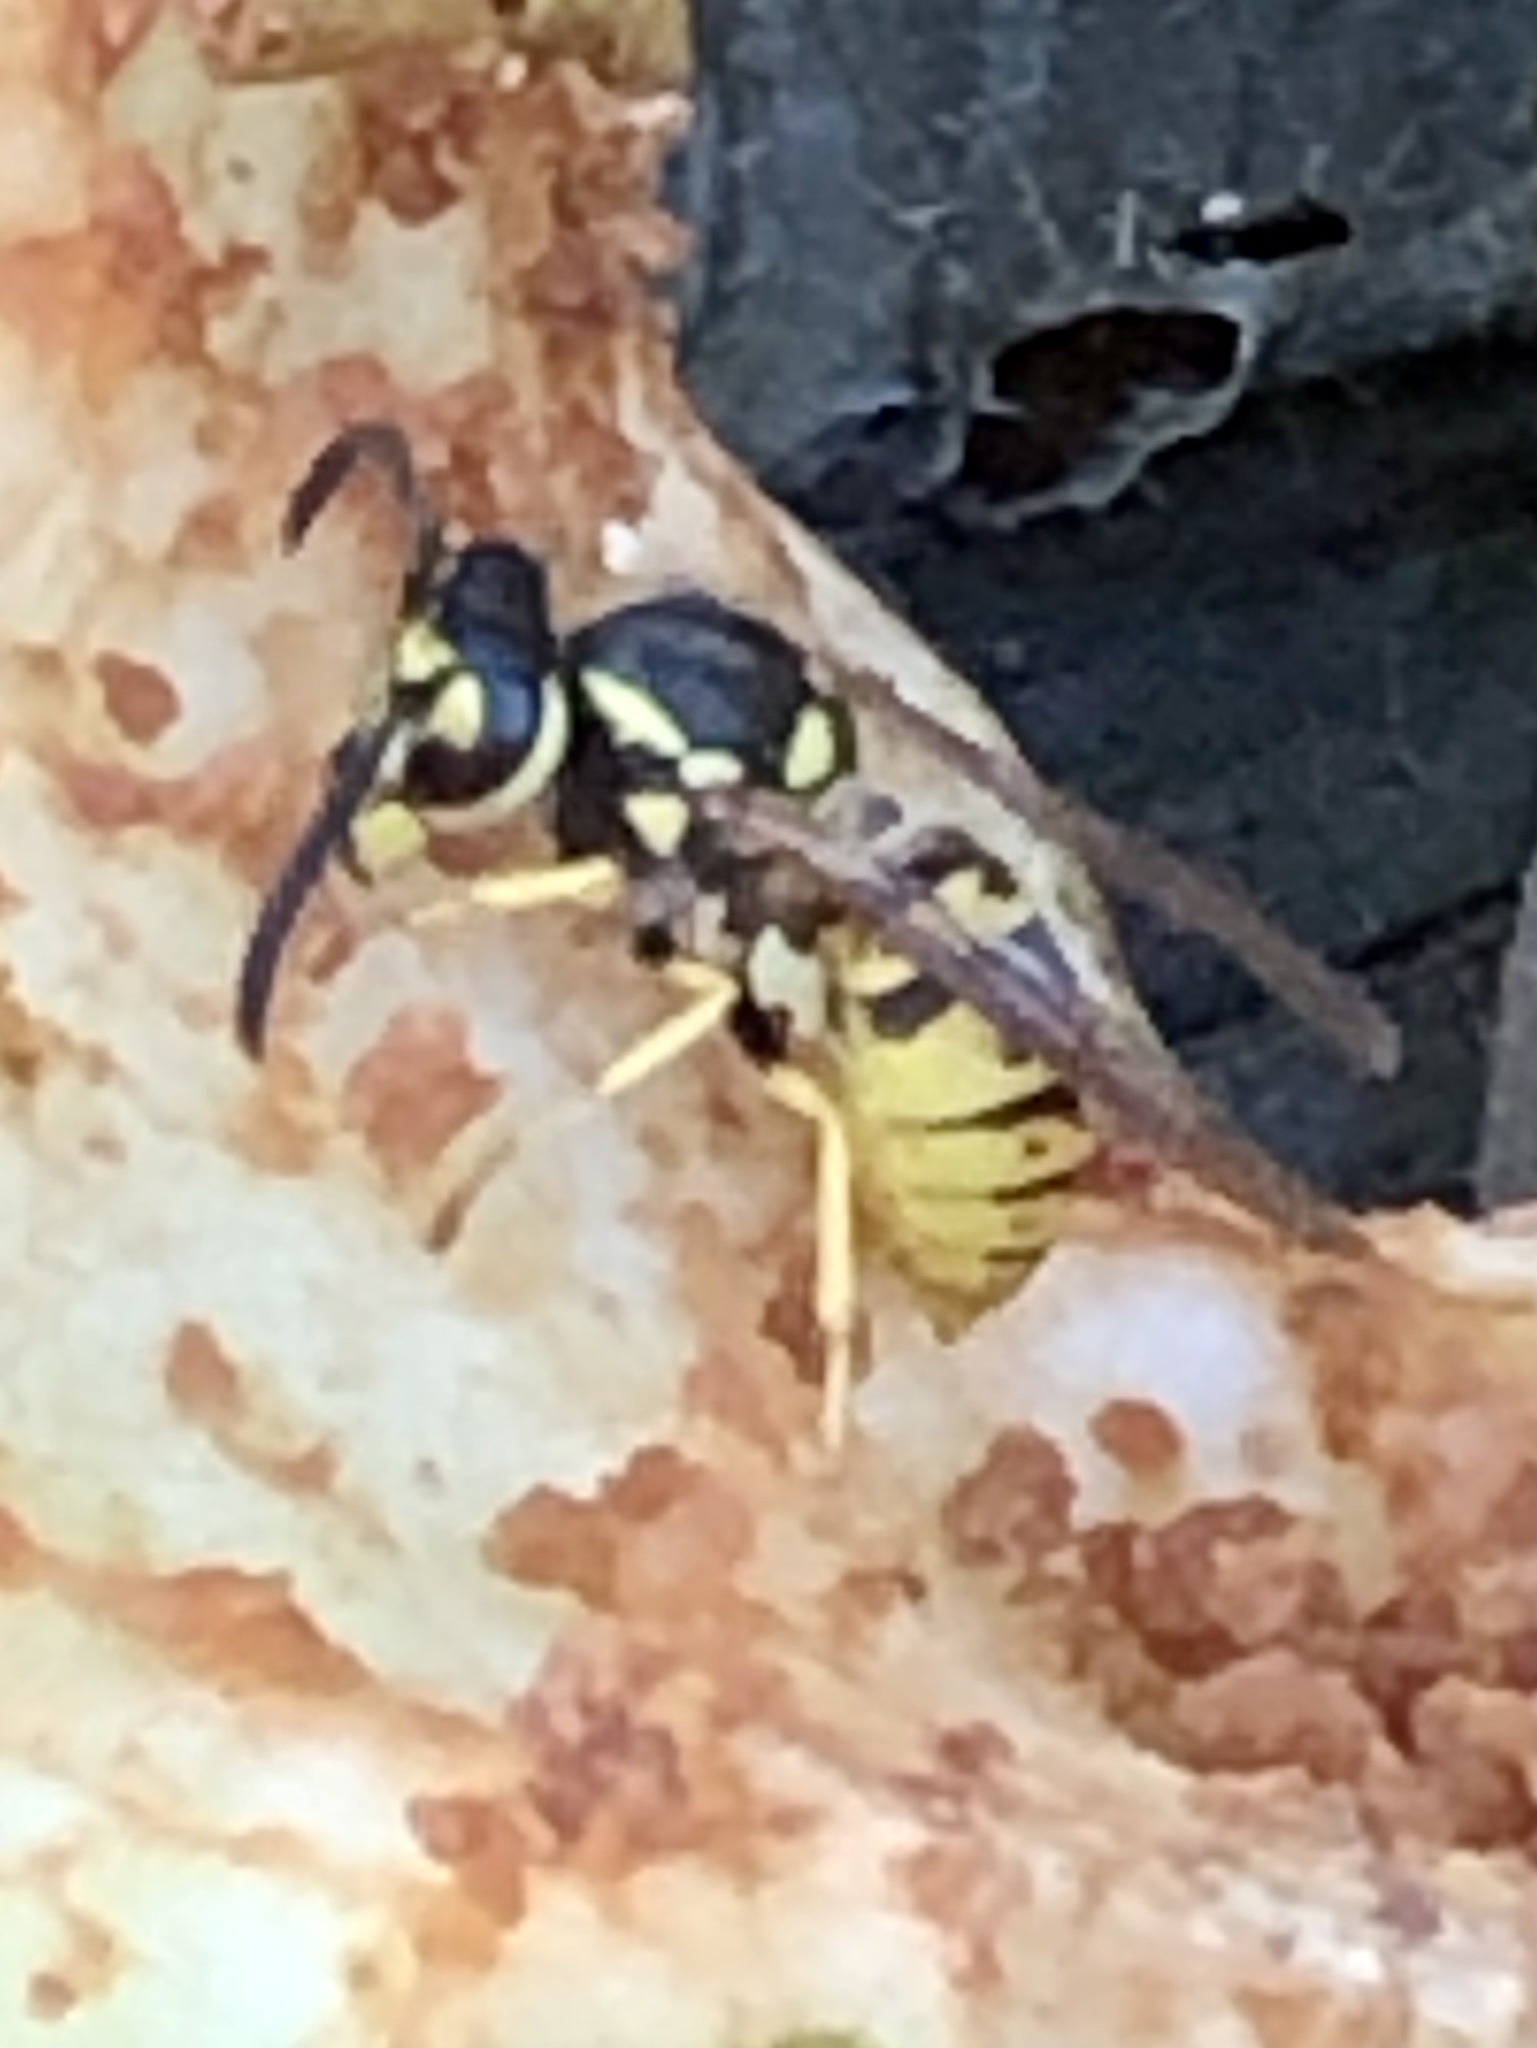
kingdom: Animalia
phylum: Arthropoda
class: Insecta
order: Hymenoptera
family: Vespidae
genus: Vespula
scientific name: Vespula germanica
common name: German wasp
